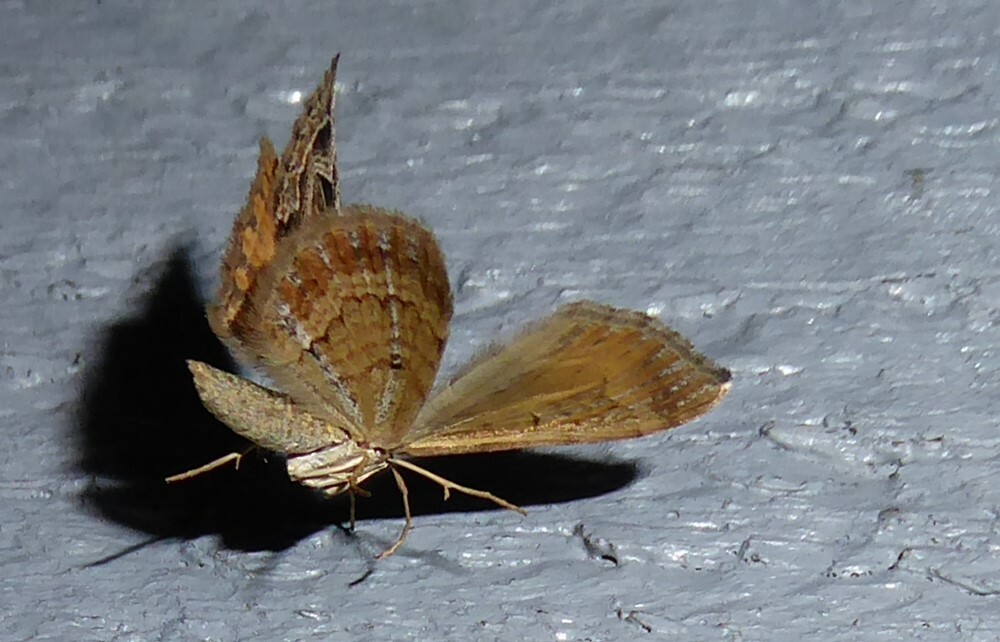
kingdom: Animalia
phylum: Arthropoda
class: Insecta
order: Lepidoptera
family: Geometridae
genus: Xanthorhoe
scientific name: Xanthorhoe semifissata
